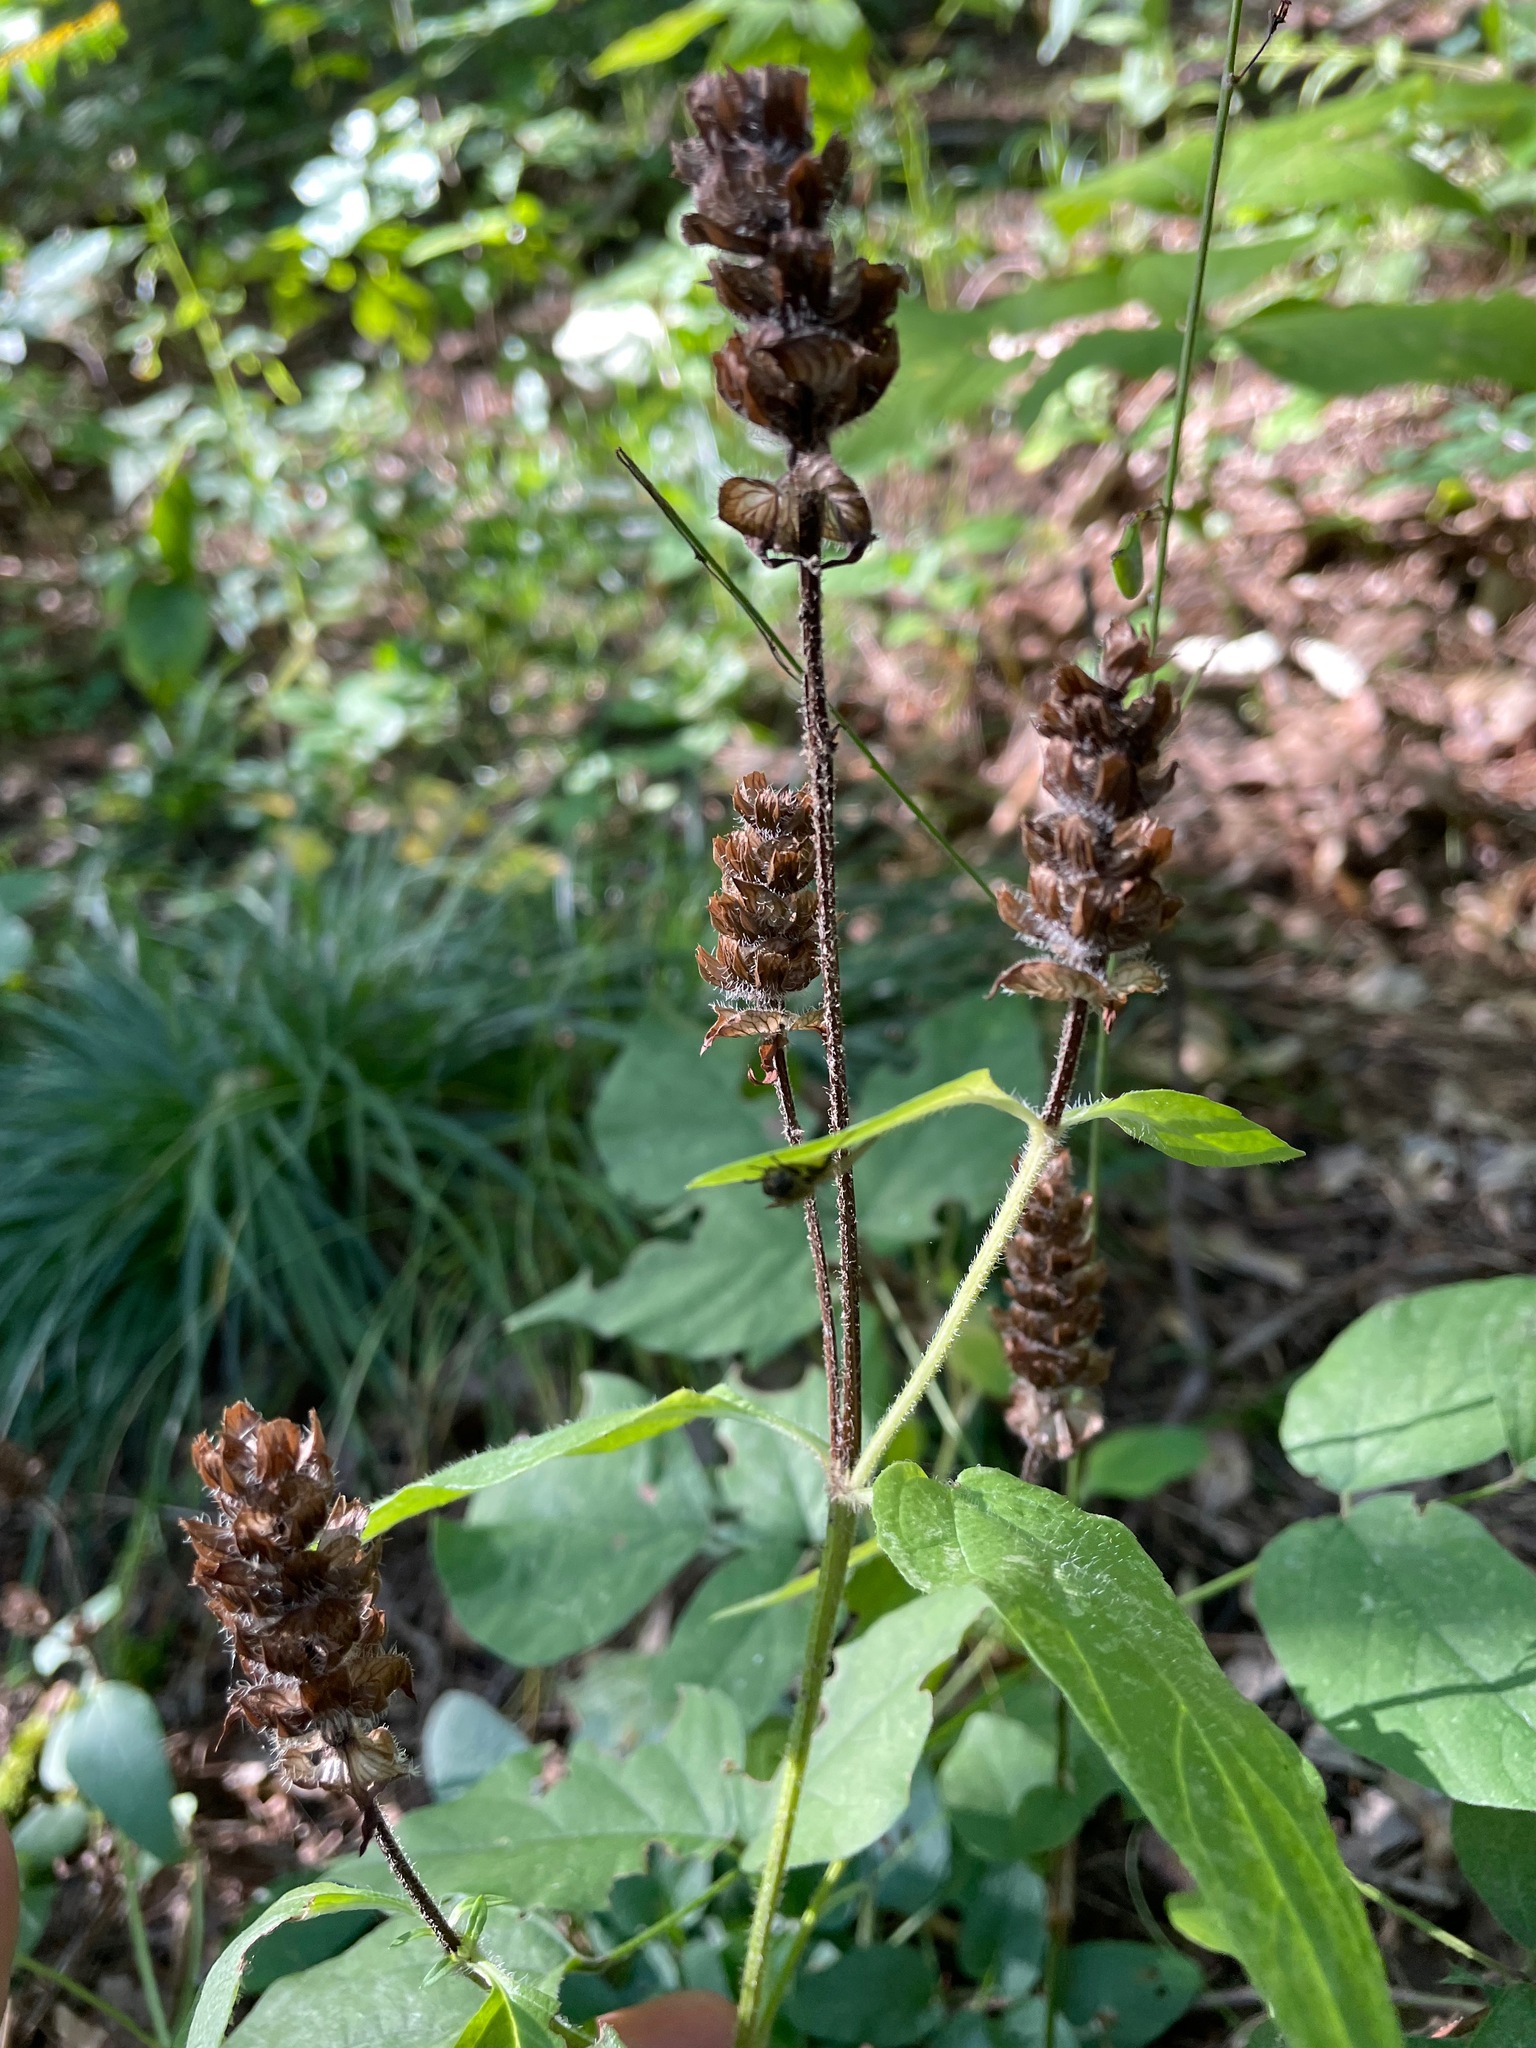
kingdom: Plantae
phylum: Tracheophyta
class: Magnoliopsida
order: Lamiales
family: Lamiaceae
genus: Prunella
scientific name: Prunella vulgaris
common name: Heal-all
